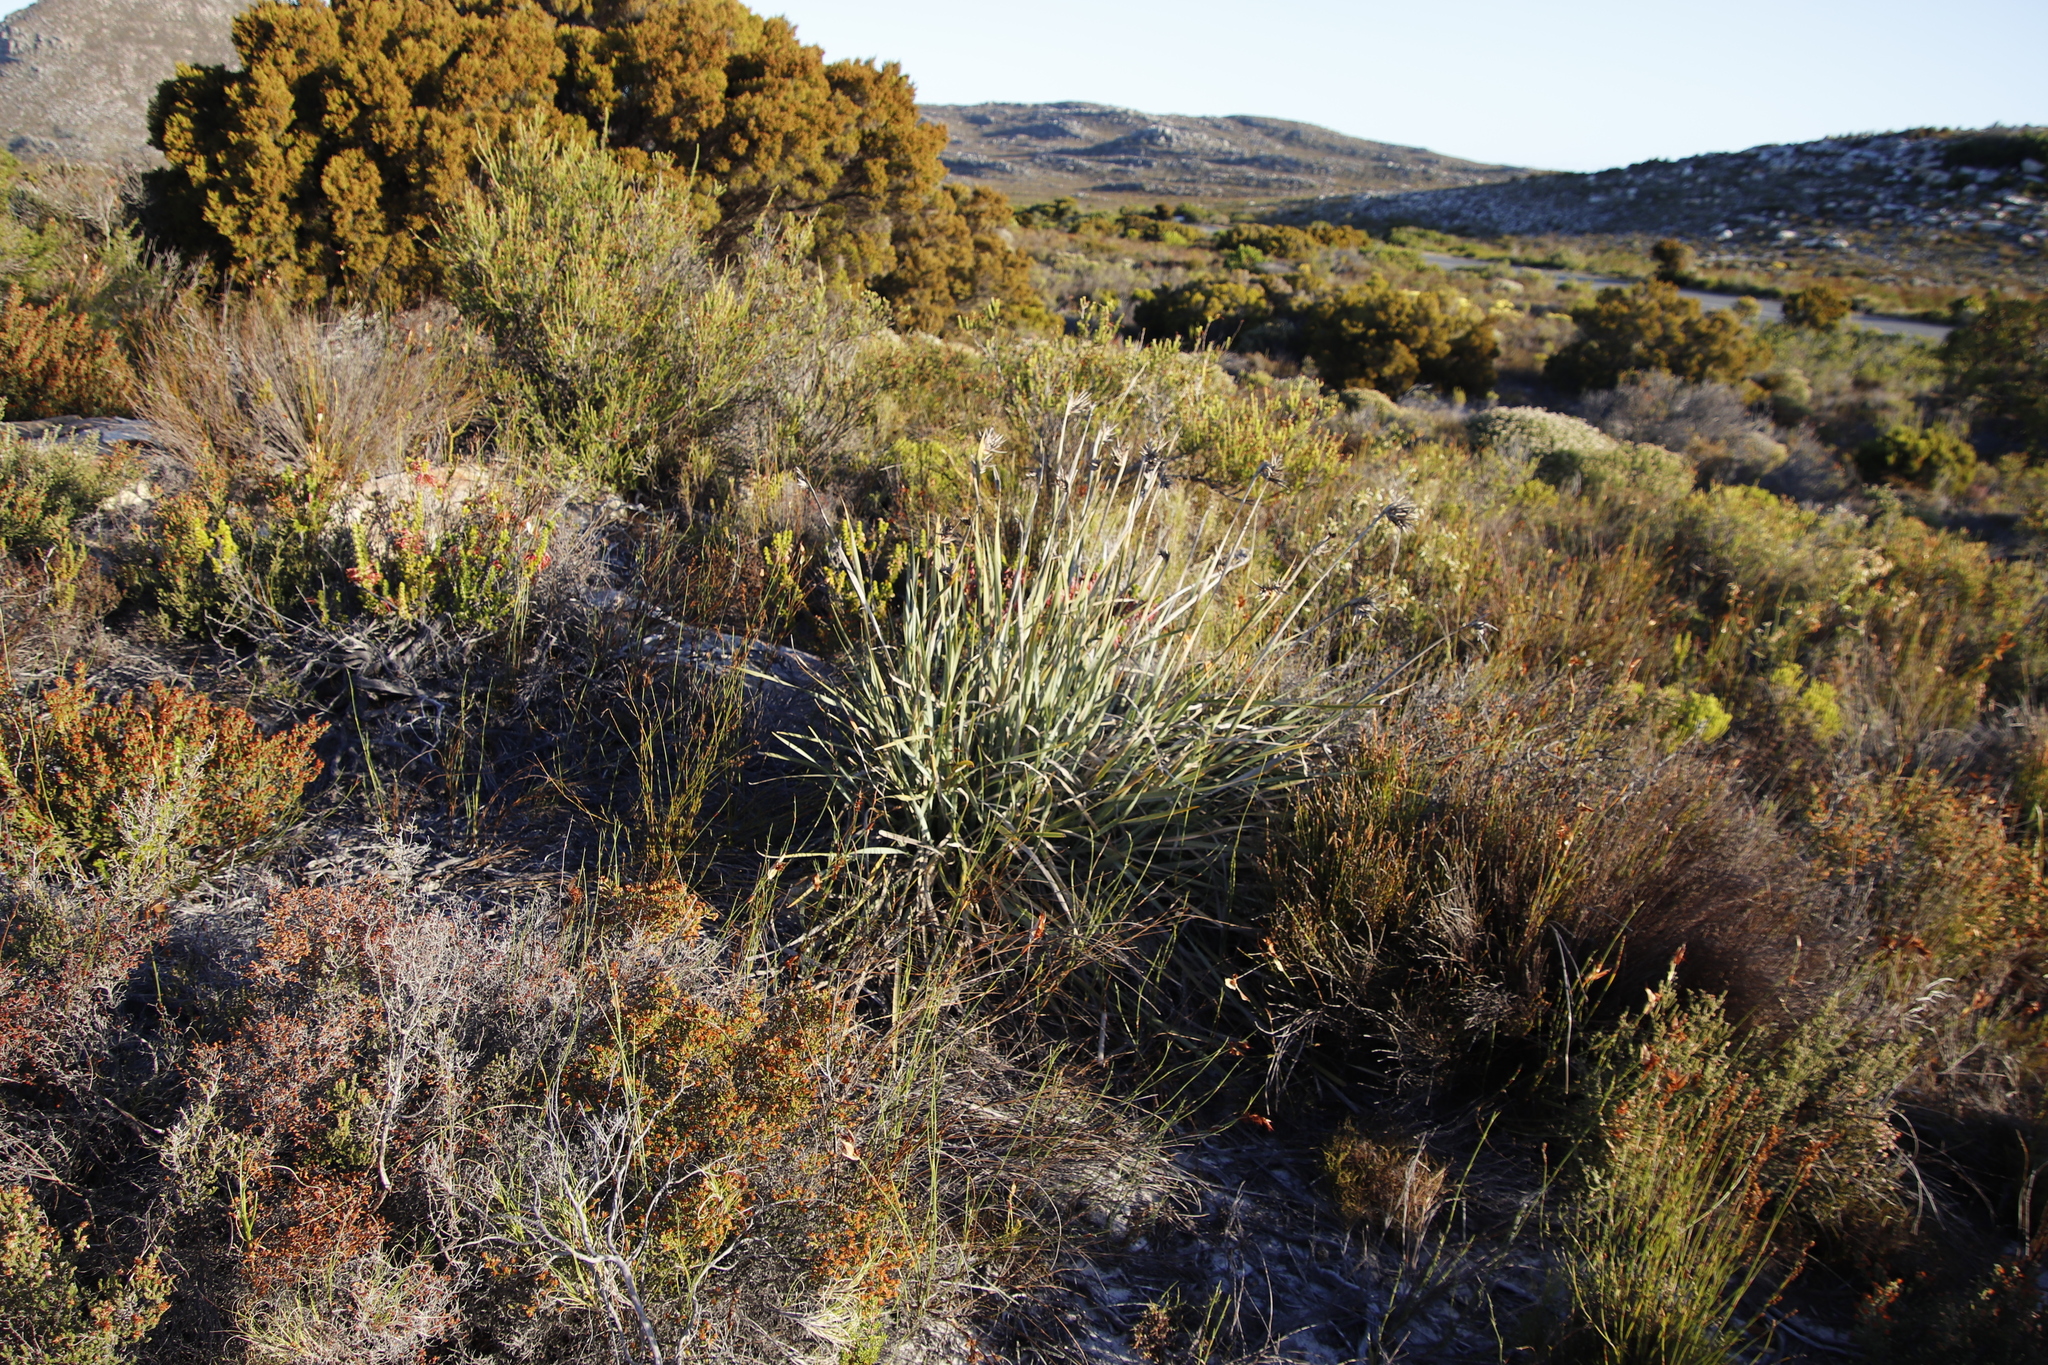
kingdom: Plantae
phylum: Tracheophyta
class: Liliopsida
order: Asparagales
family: Iridaceae
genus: Bobartia
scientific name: Bobartia gladiata
